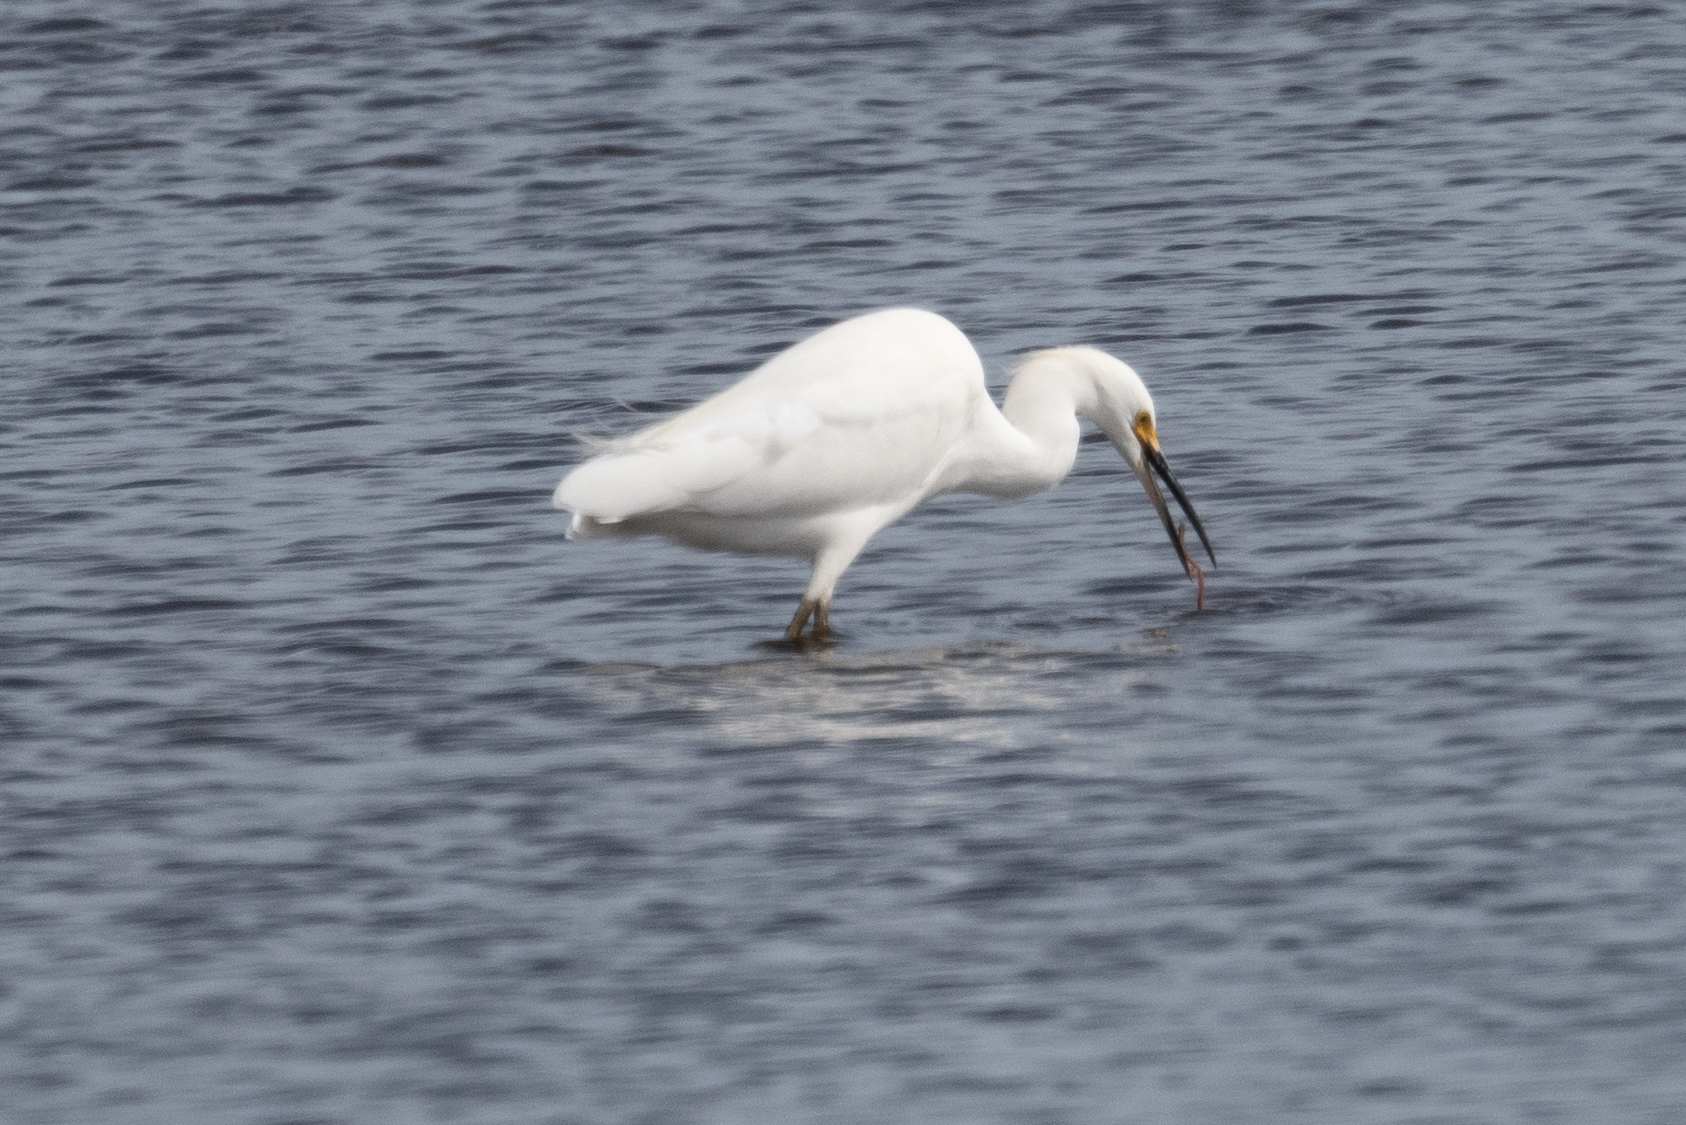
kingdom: Animalia
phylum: Chordata
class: Aves
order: Pelecaniformes
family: Ardeidae
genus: Egretta
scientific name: Egretta thula
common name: Snowy egret
